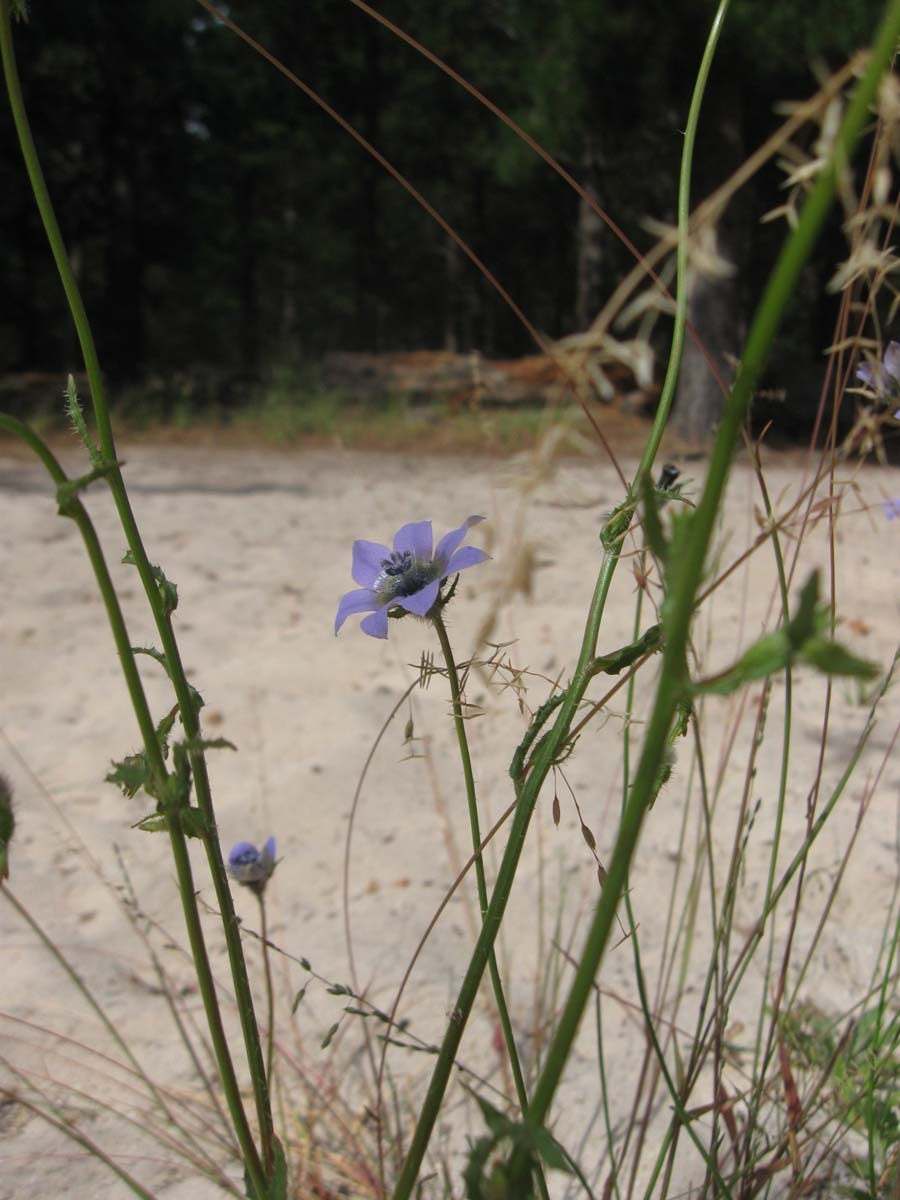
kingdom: Plantae
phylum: Tracheophyta
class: Magnoliopsida
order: Asterales
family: Campanulaceae
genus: Wahlenbergia
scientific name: Wahlenbergia capensis
